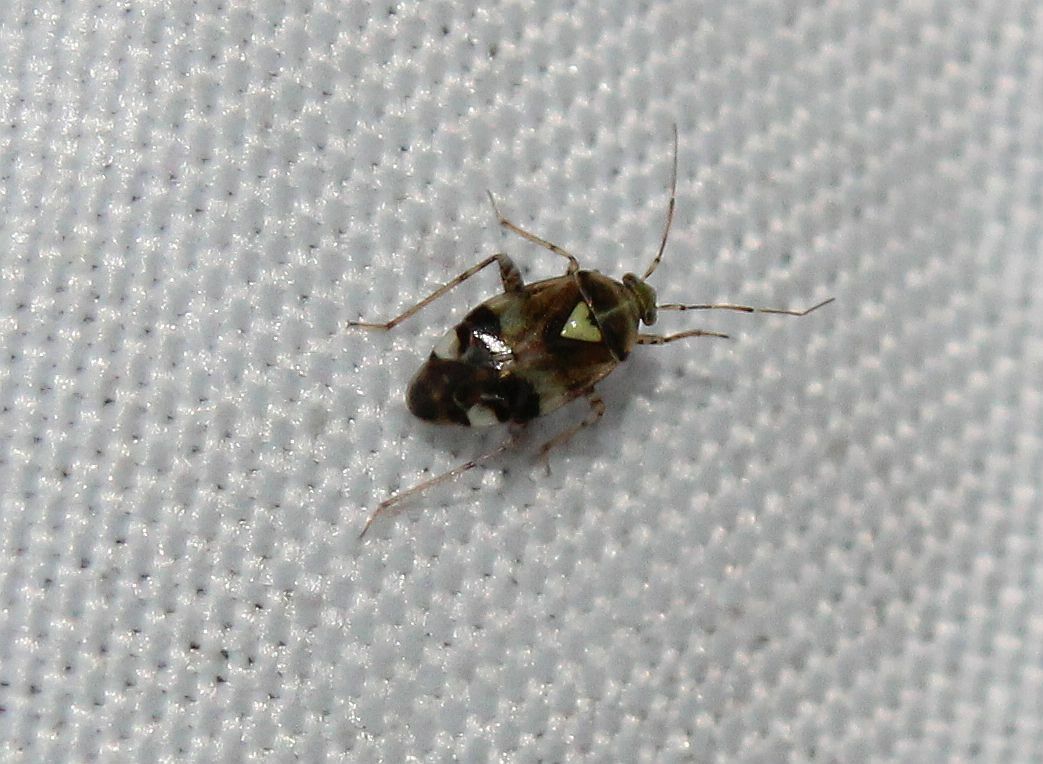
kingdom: Animalia
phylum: Arthropoda
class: Insecta
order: Hemiptera
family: Miridae
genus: Liocoris
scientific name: Liocoris tripustulatus
